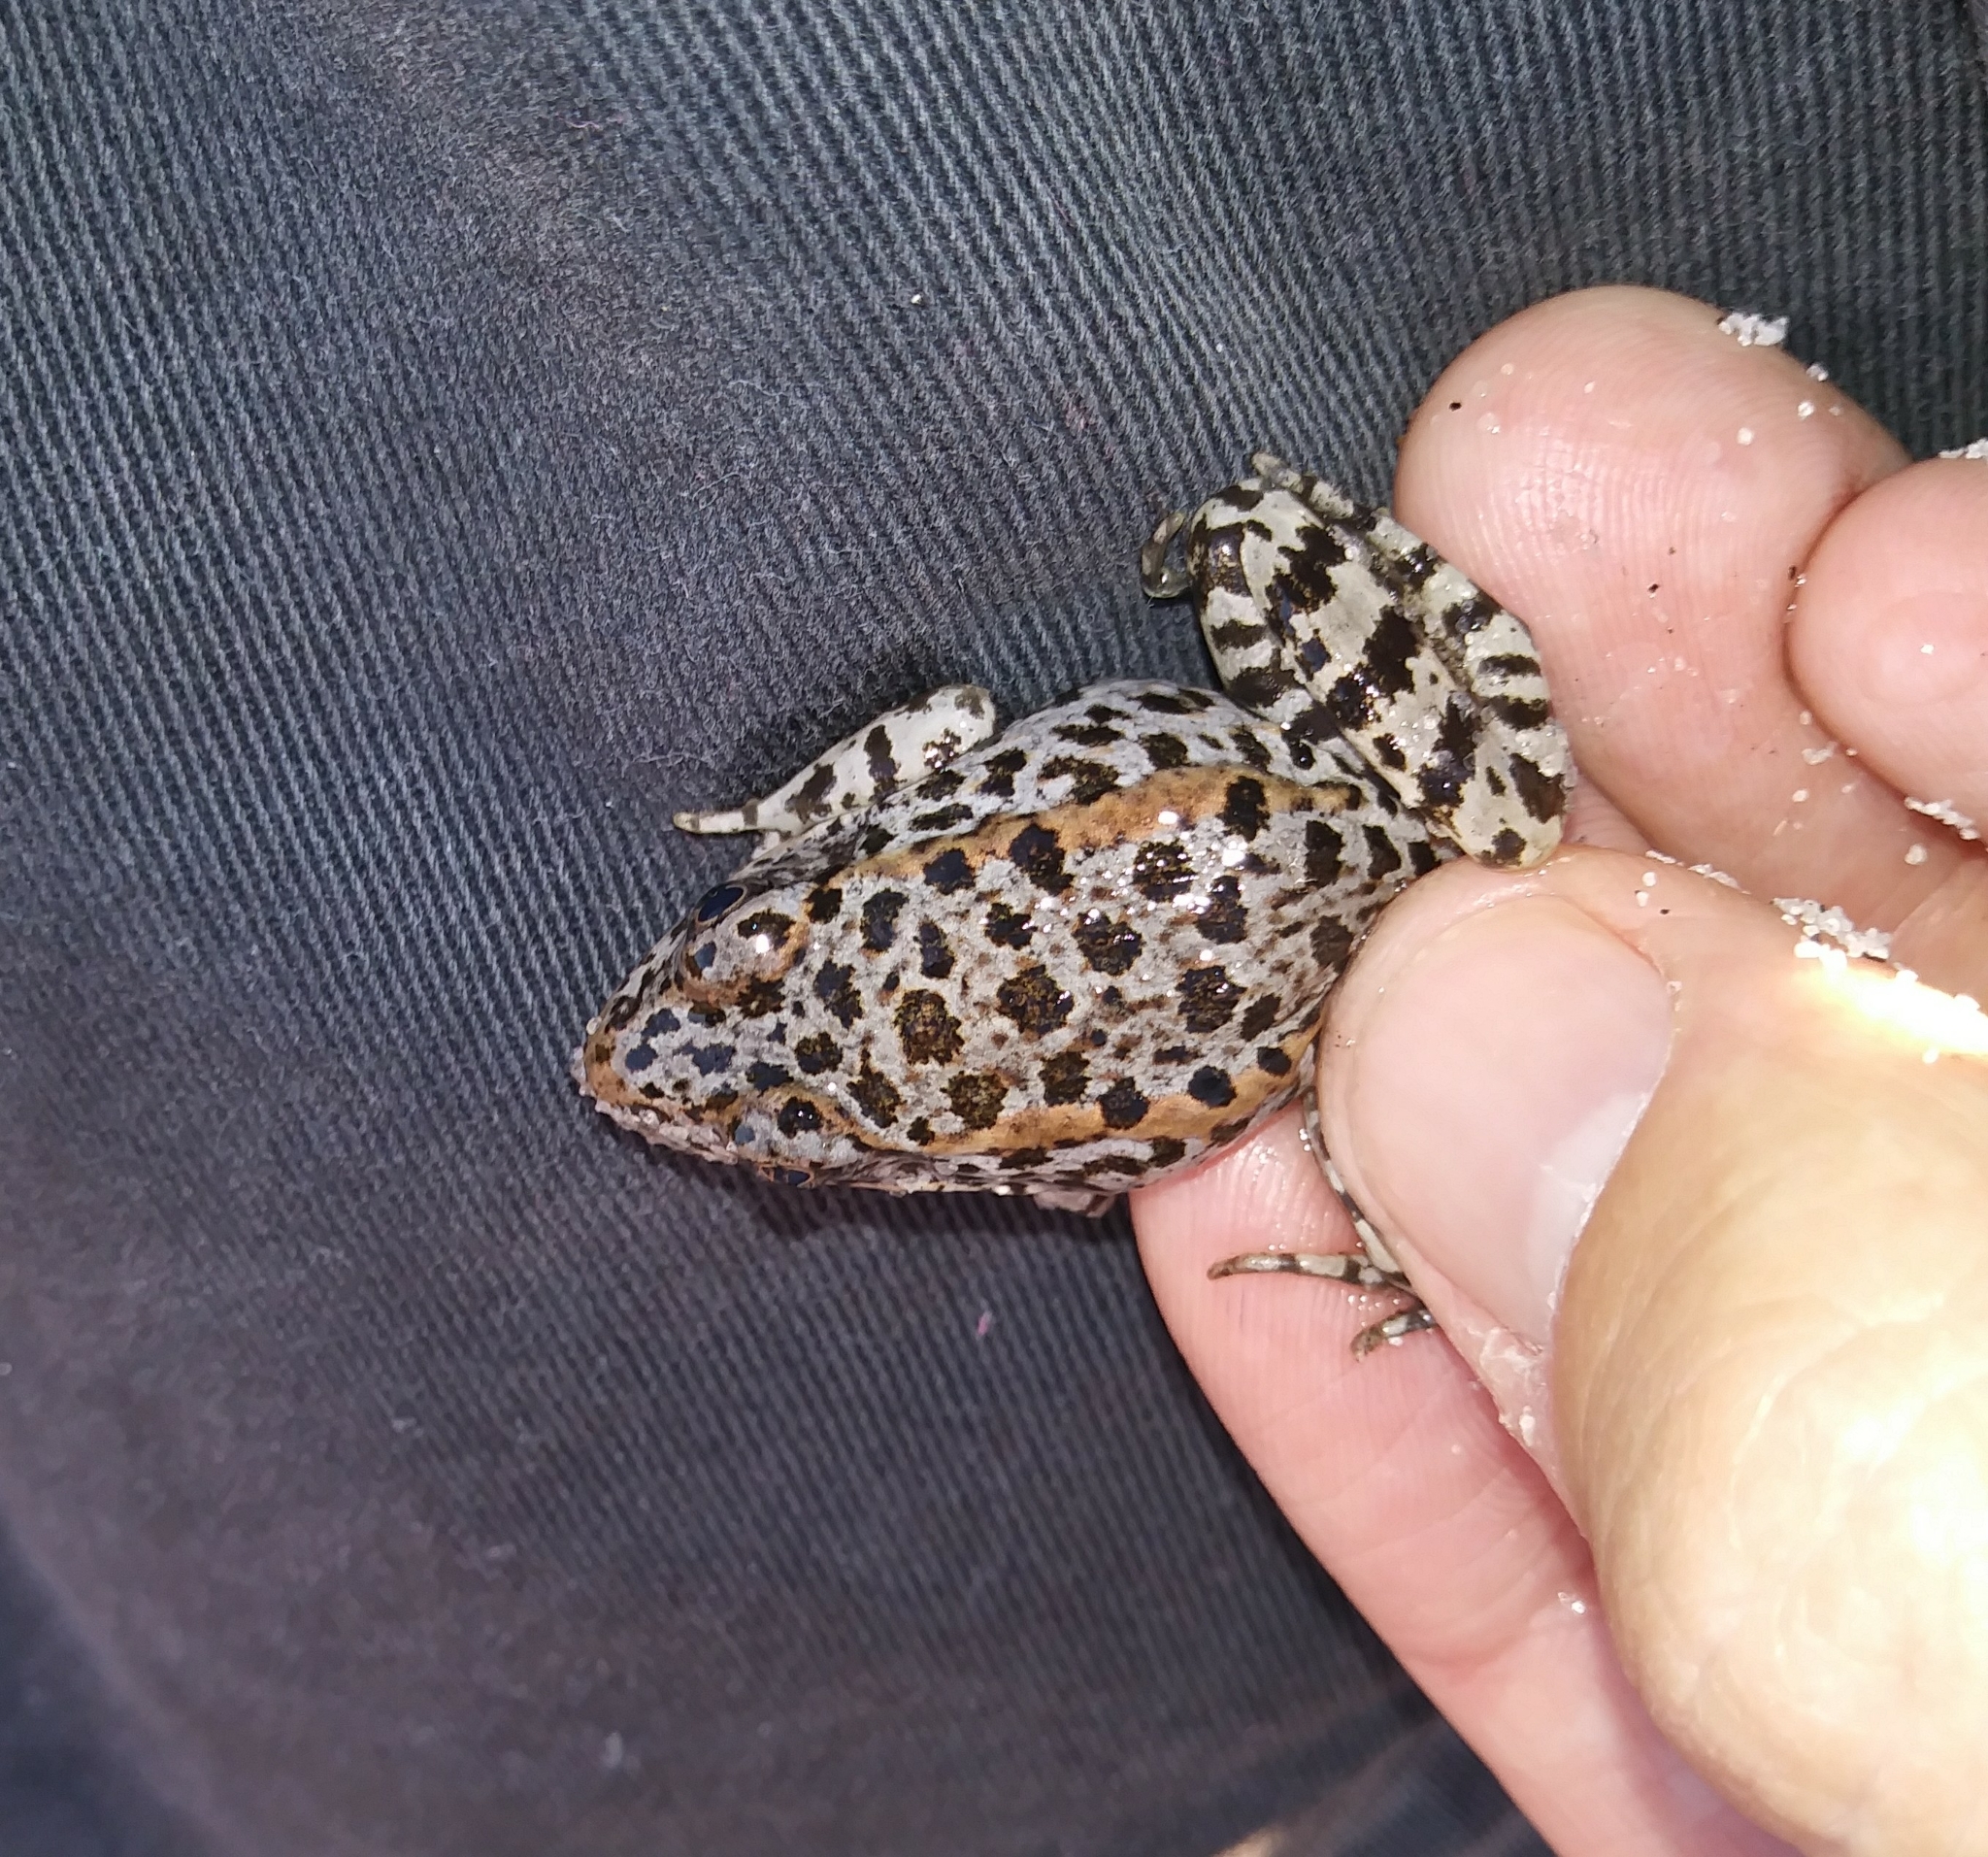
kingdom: Animalia
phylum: Chordata
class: Amphibia
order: Anura
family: Ranidae
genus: Lithobates
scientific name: Lithobates capito
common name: Gopher frog
